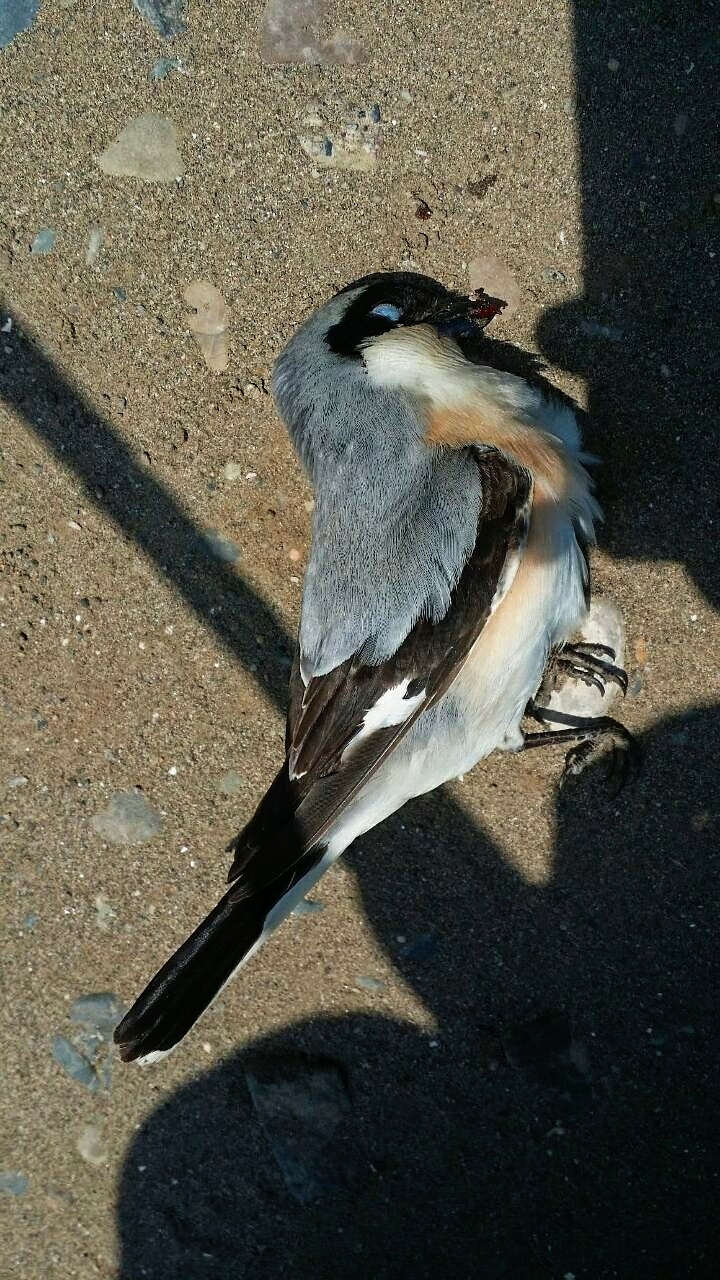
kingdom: Animalia
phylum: Chordata
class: Aves
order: Passeriformes
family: Laniidae
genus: Lanius
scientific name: Lanius minor
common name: Lesser grey shrike
